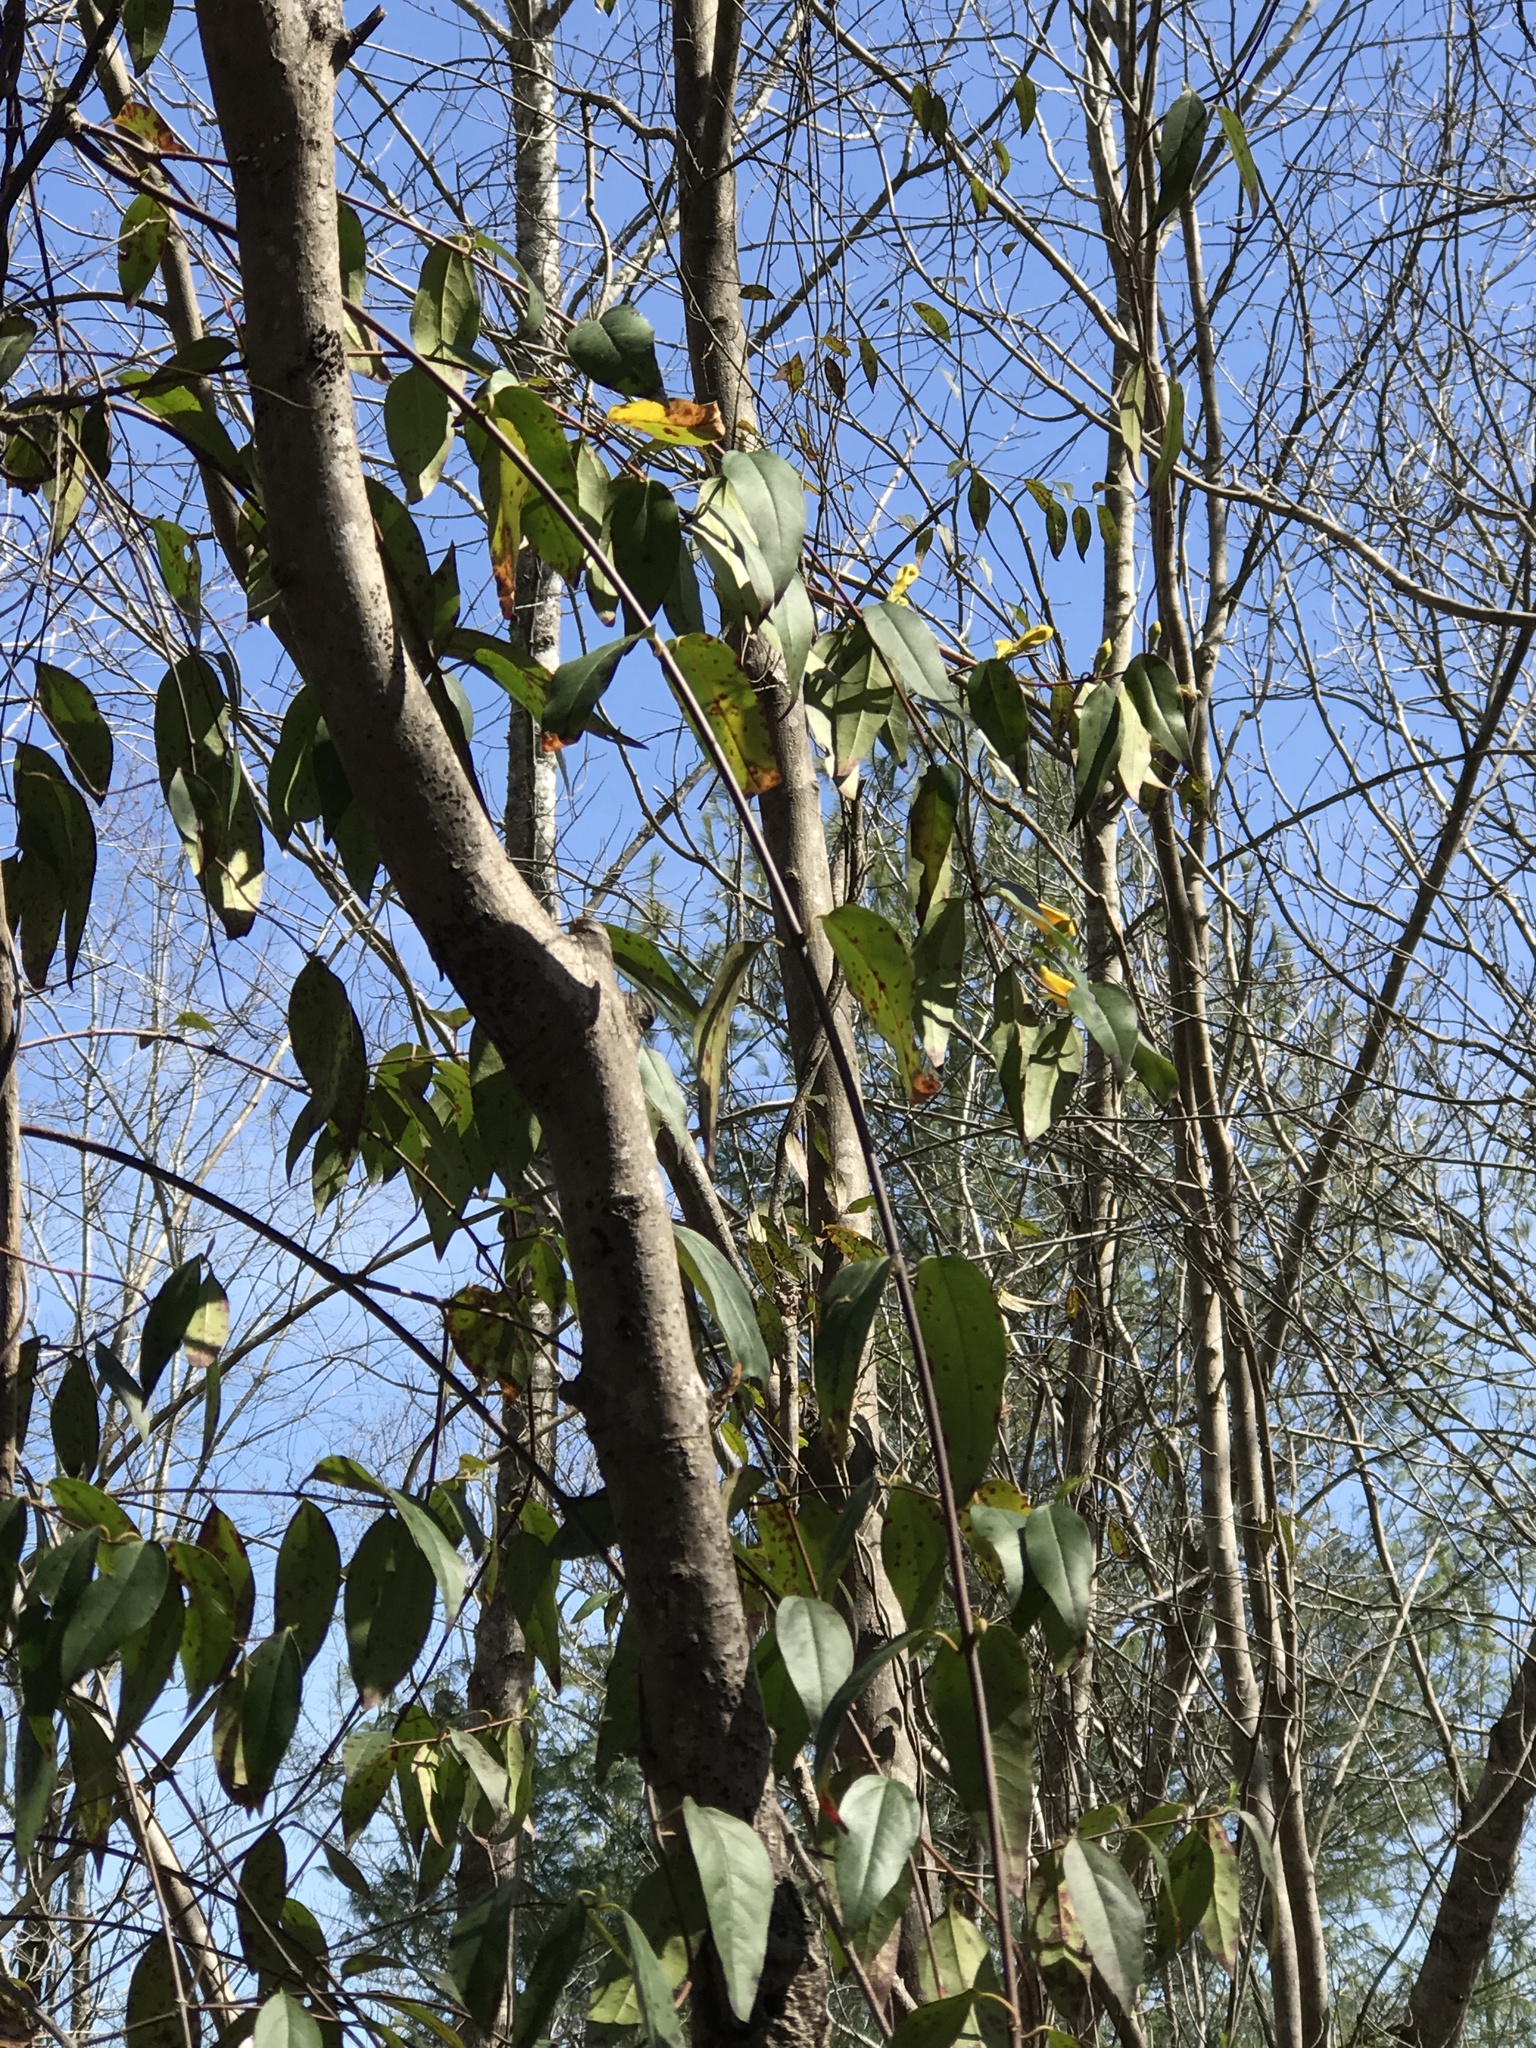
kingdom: Plantae
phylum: Tracheophyta
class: Magnoliopsida
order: Gentianales
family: Gelsemiaceae
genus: Gelsemium
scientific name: Gelsemium sempervirens
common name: Carolina-jasmine
